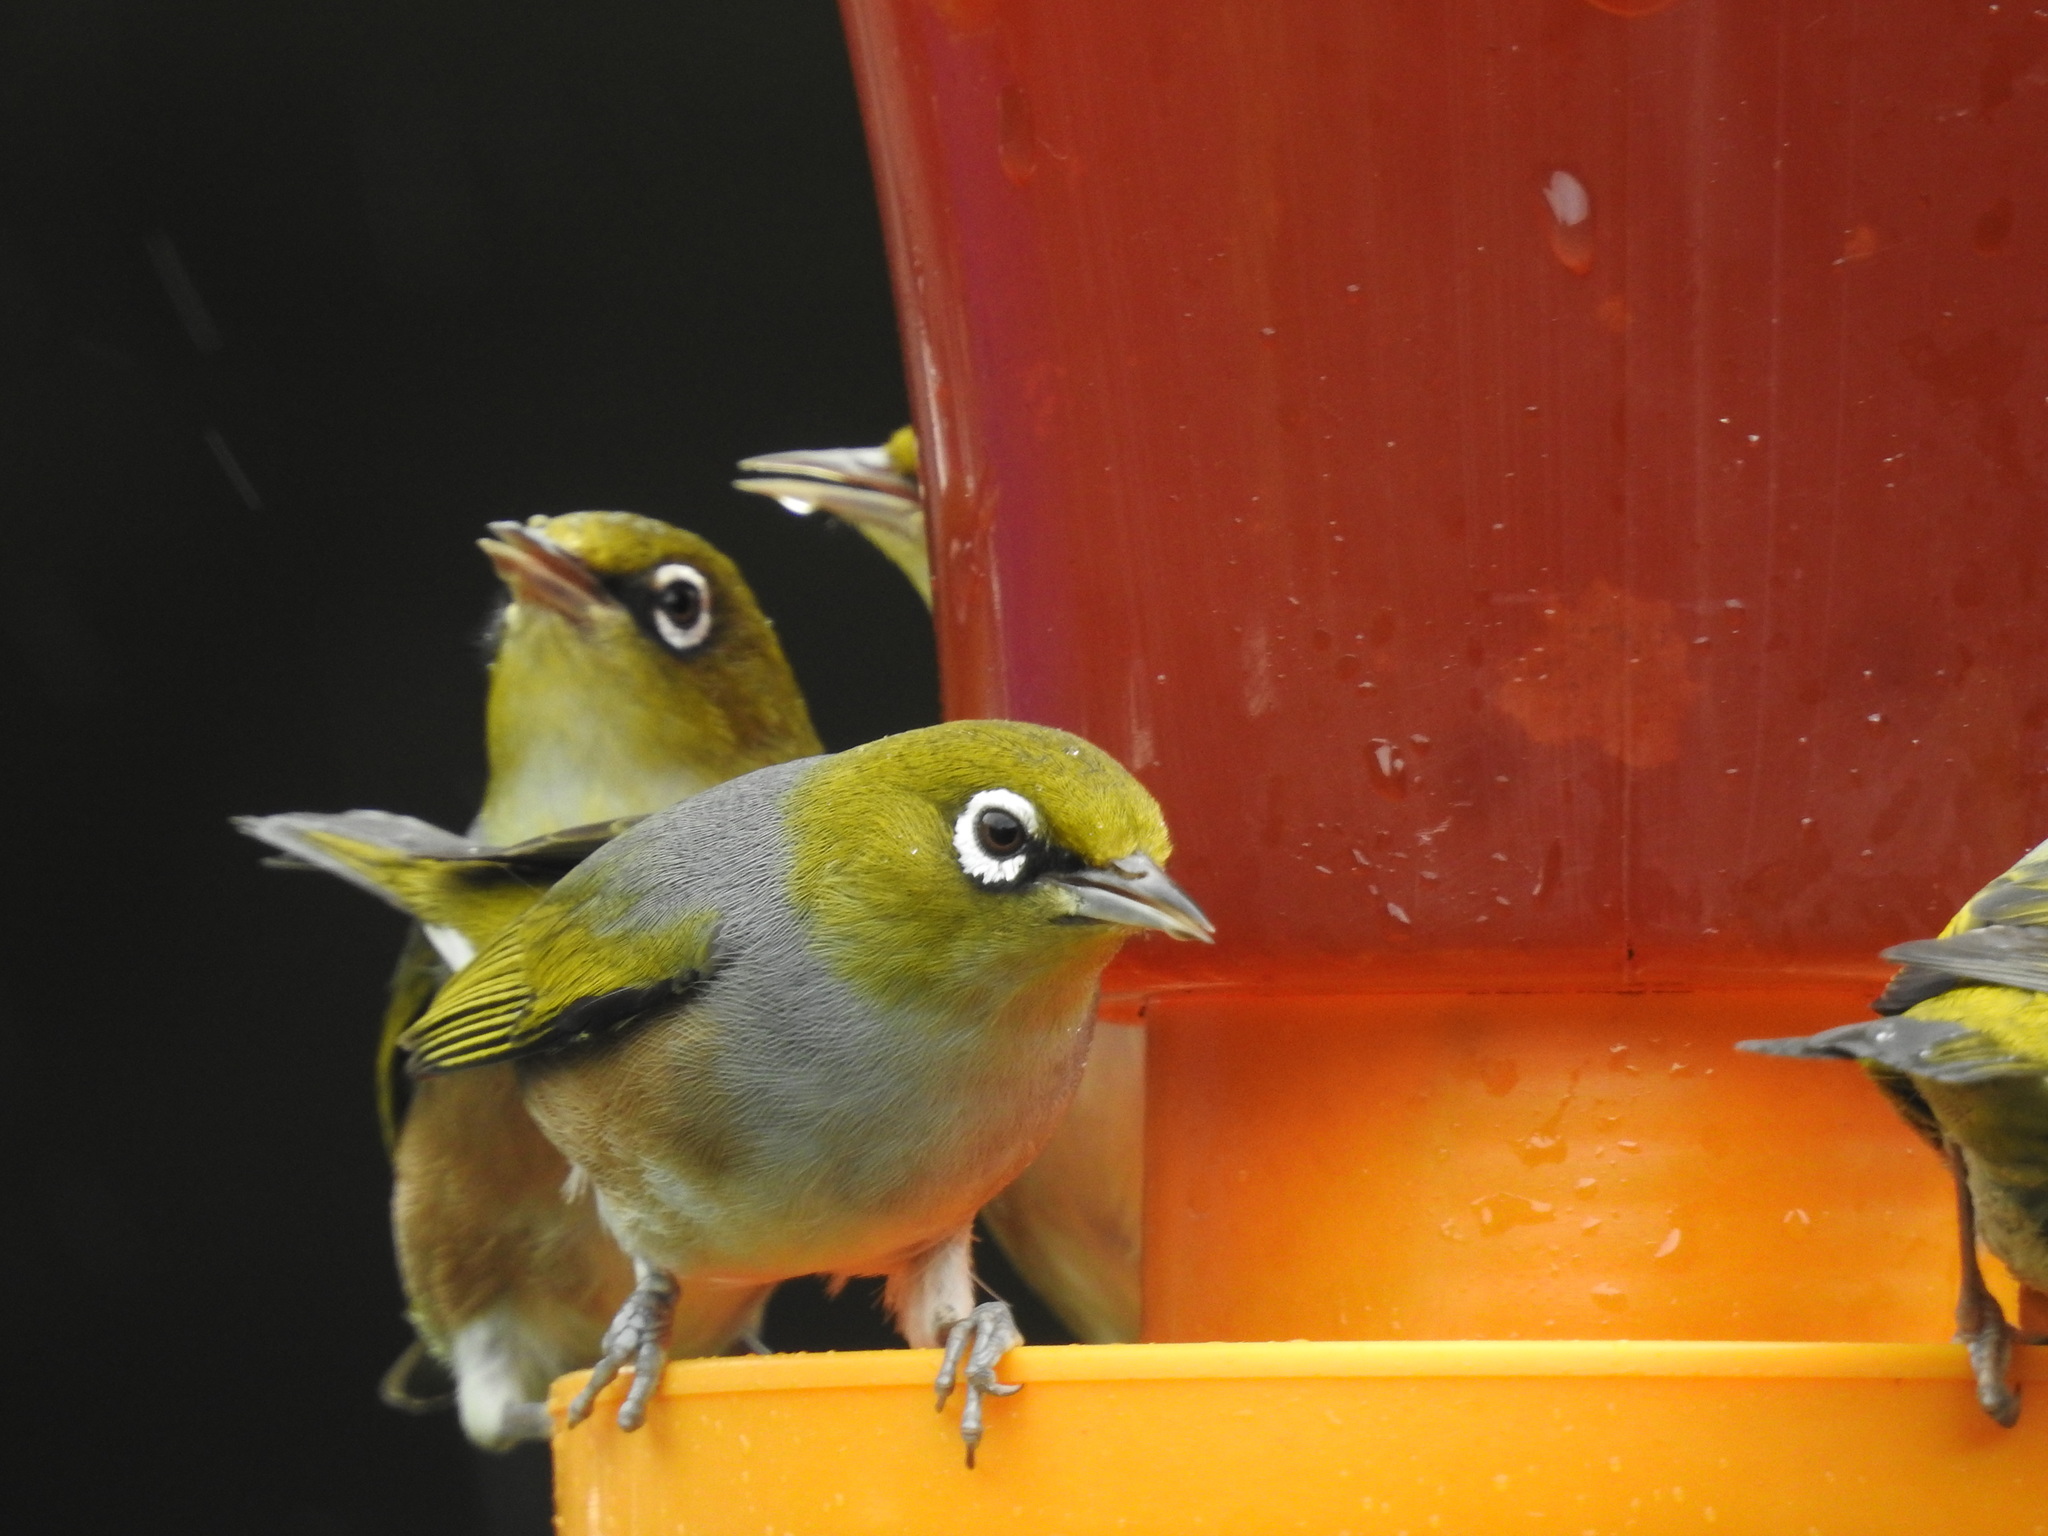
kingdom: Animalia
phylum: Chordata
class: Aves
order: Passeriformes
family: Zosteropidae
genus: Zosterops
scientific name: Zosterops lateralis
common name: Silvereye
